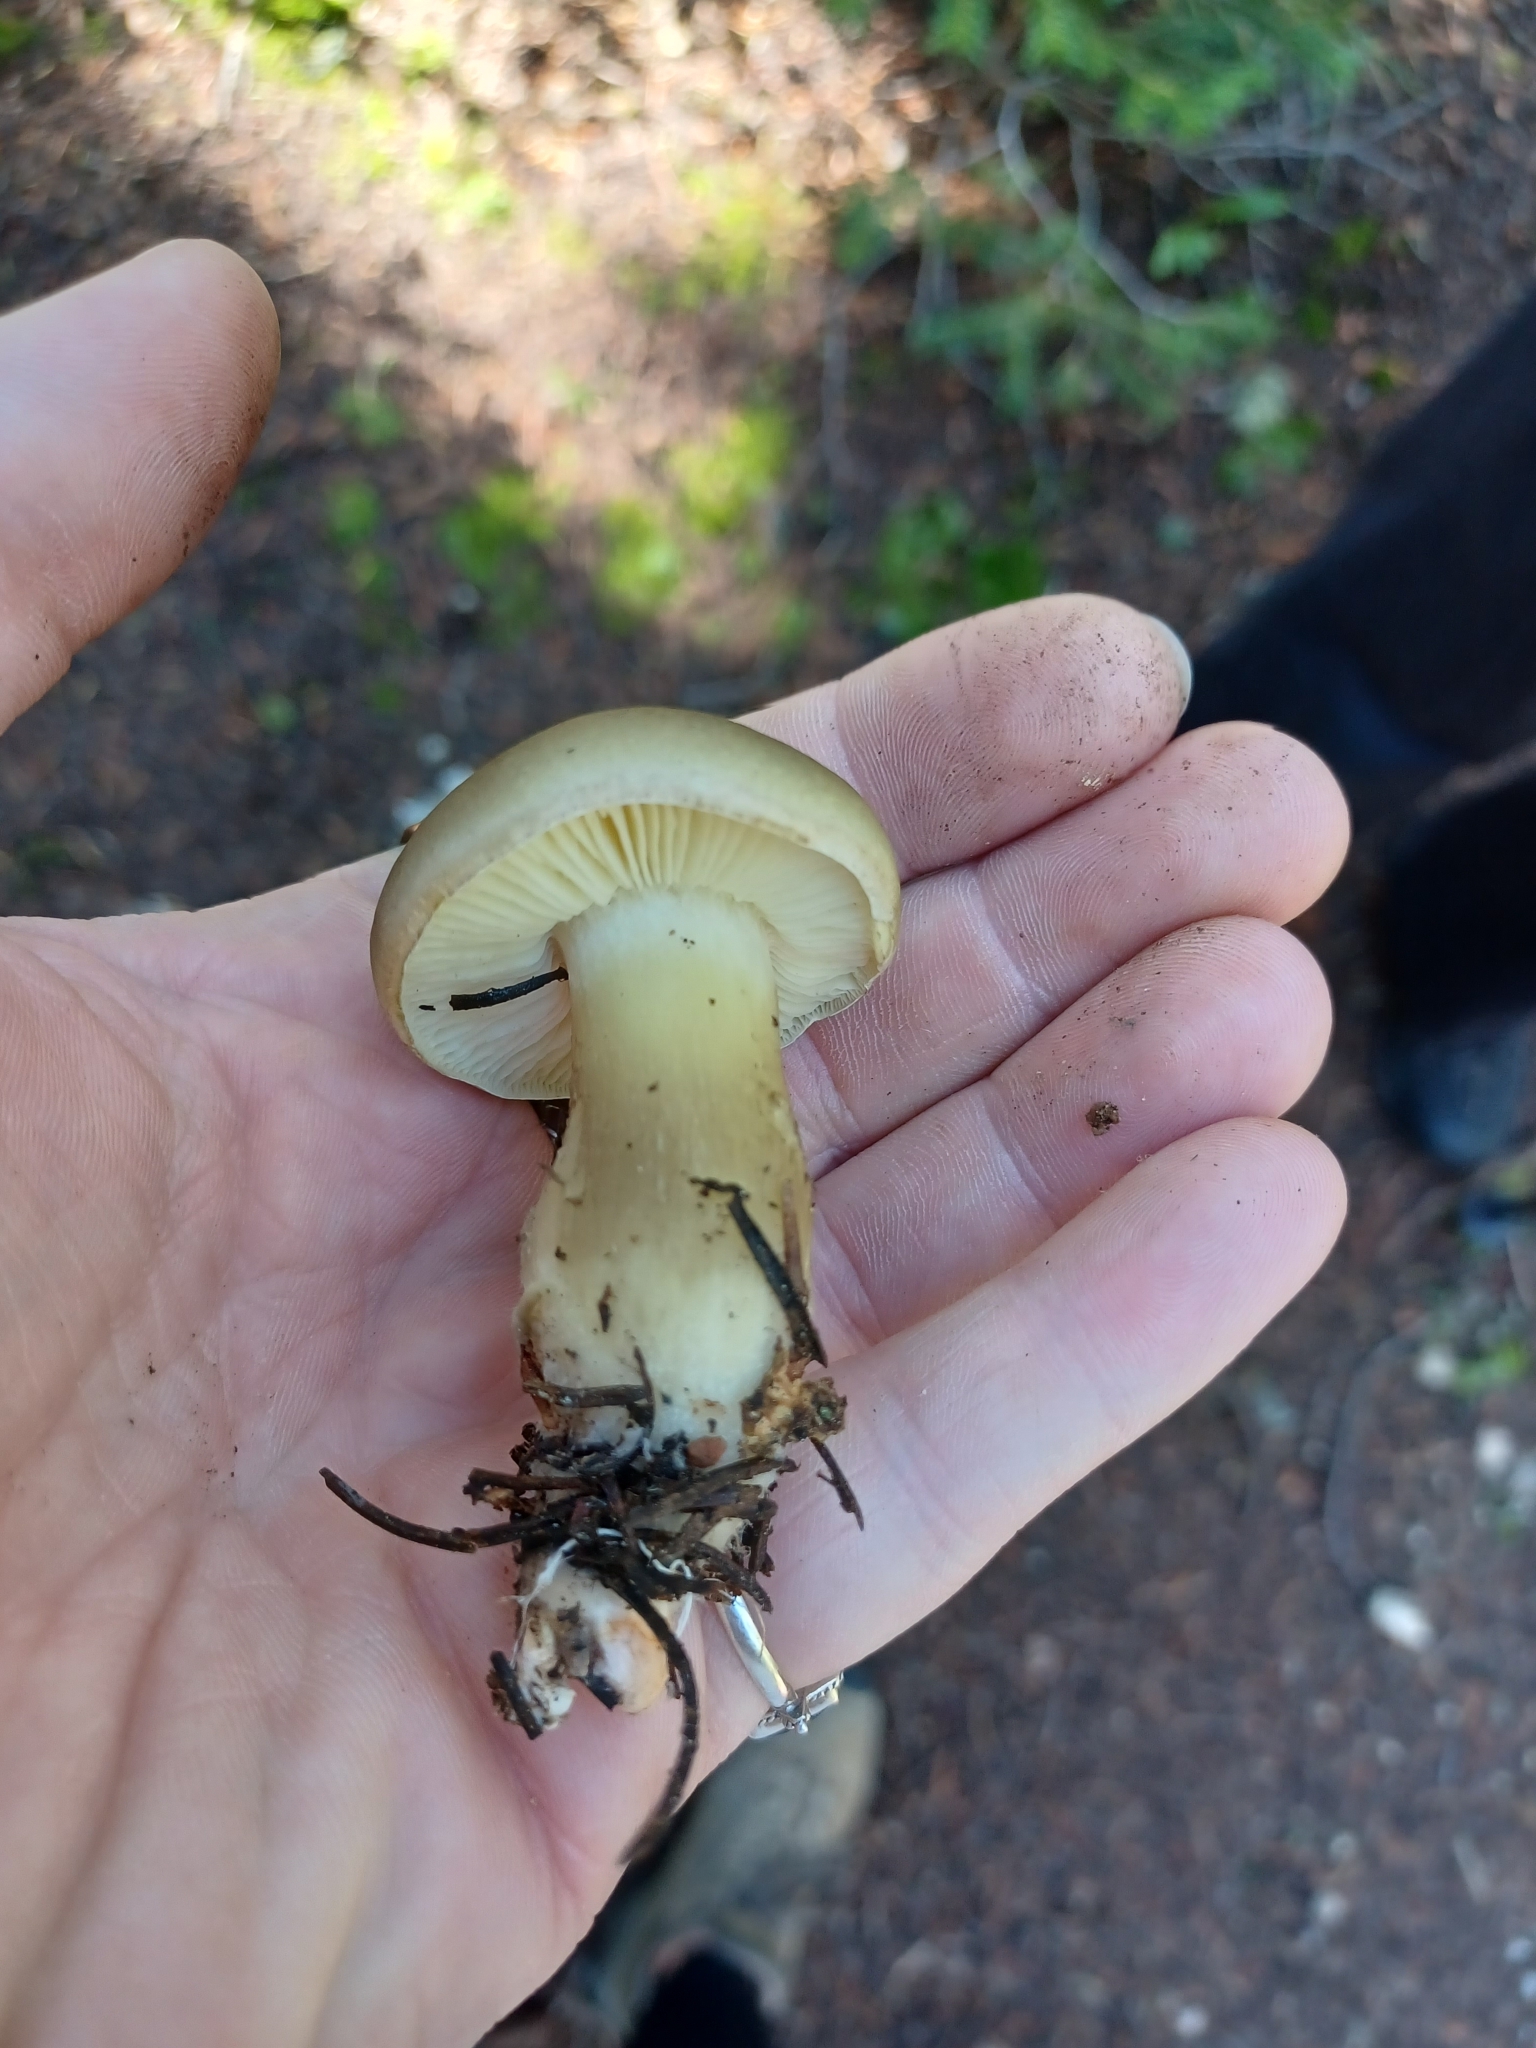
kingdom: Fungi
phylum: Basidiomycota
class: Agaricomycetes
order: Agaricales
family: Tricholomataceae
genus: Tricholoma
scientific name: Tricholoma saponaceum
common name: Soapy trich
